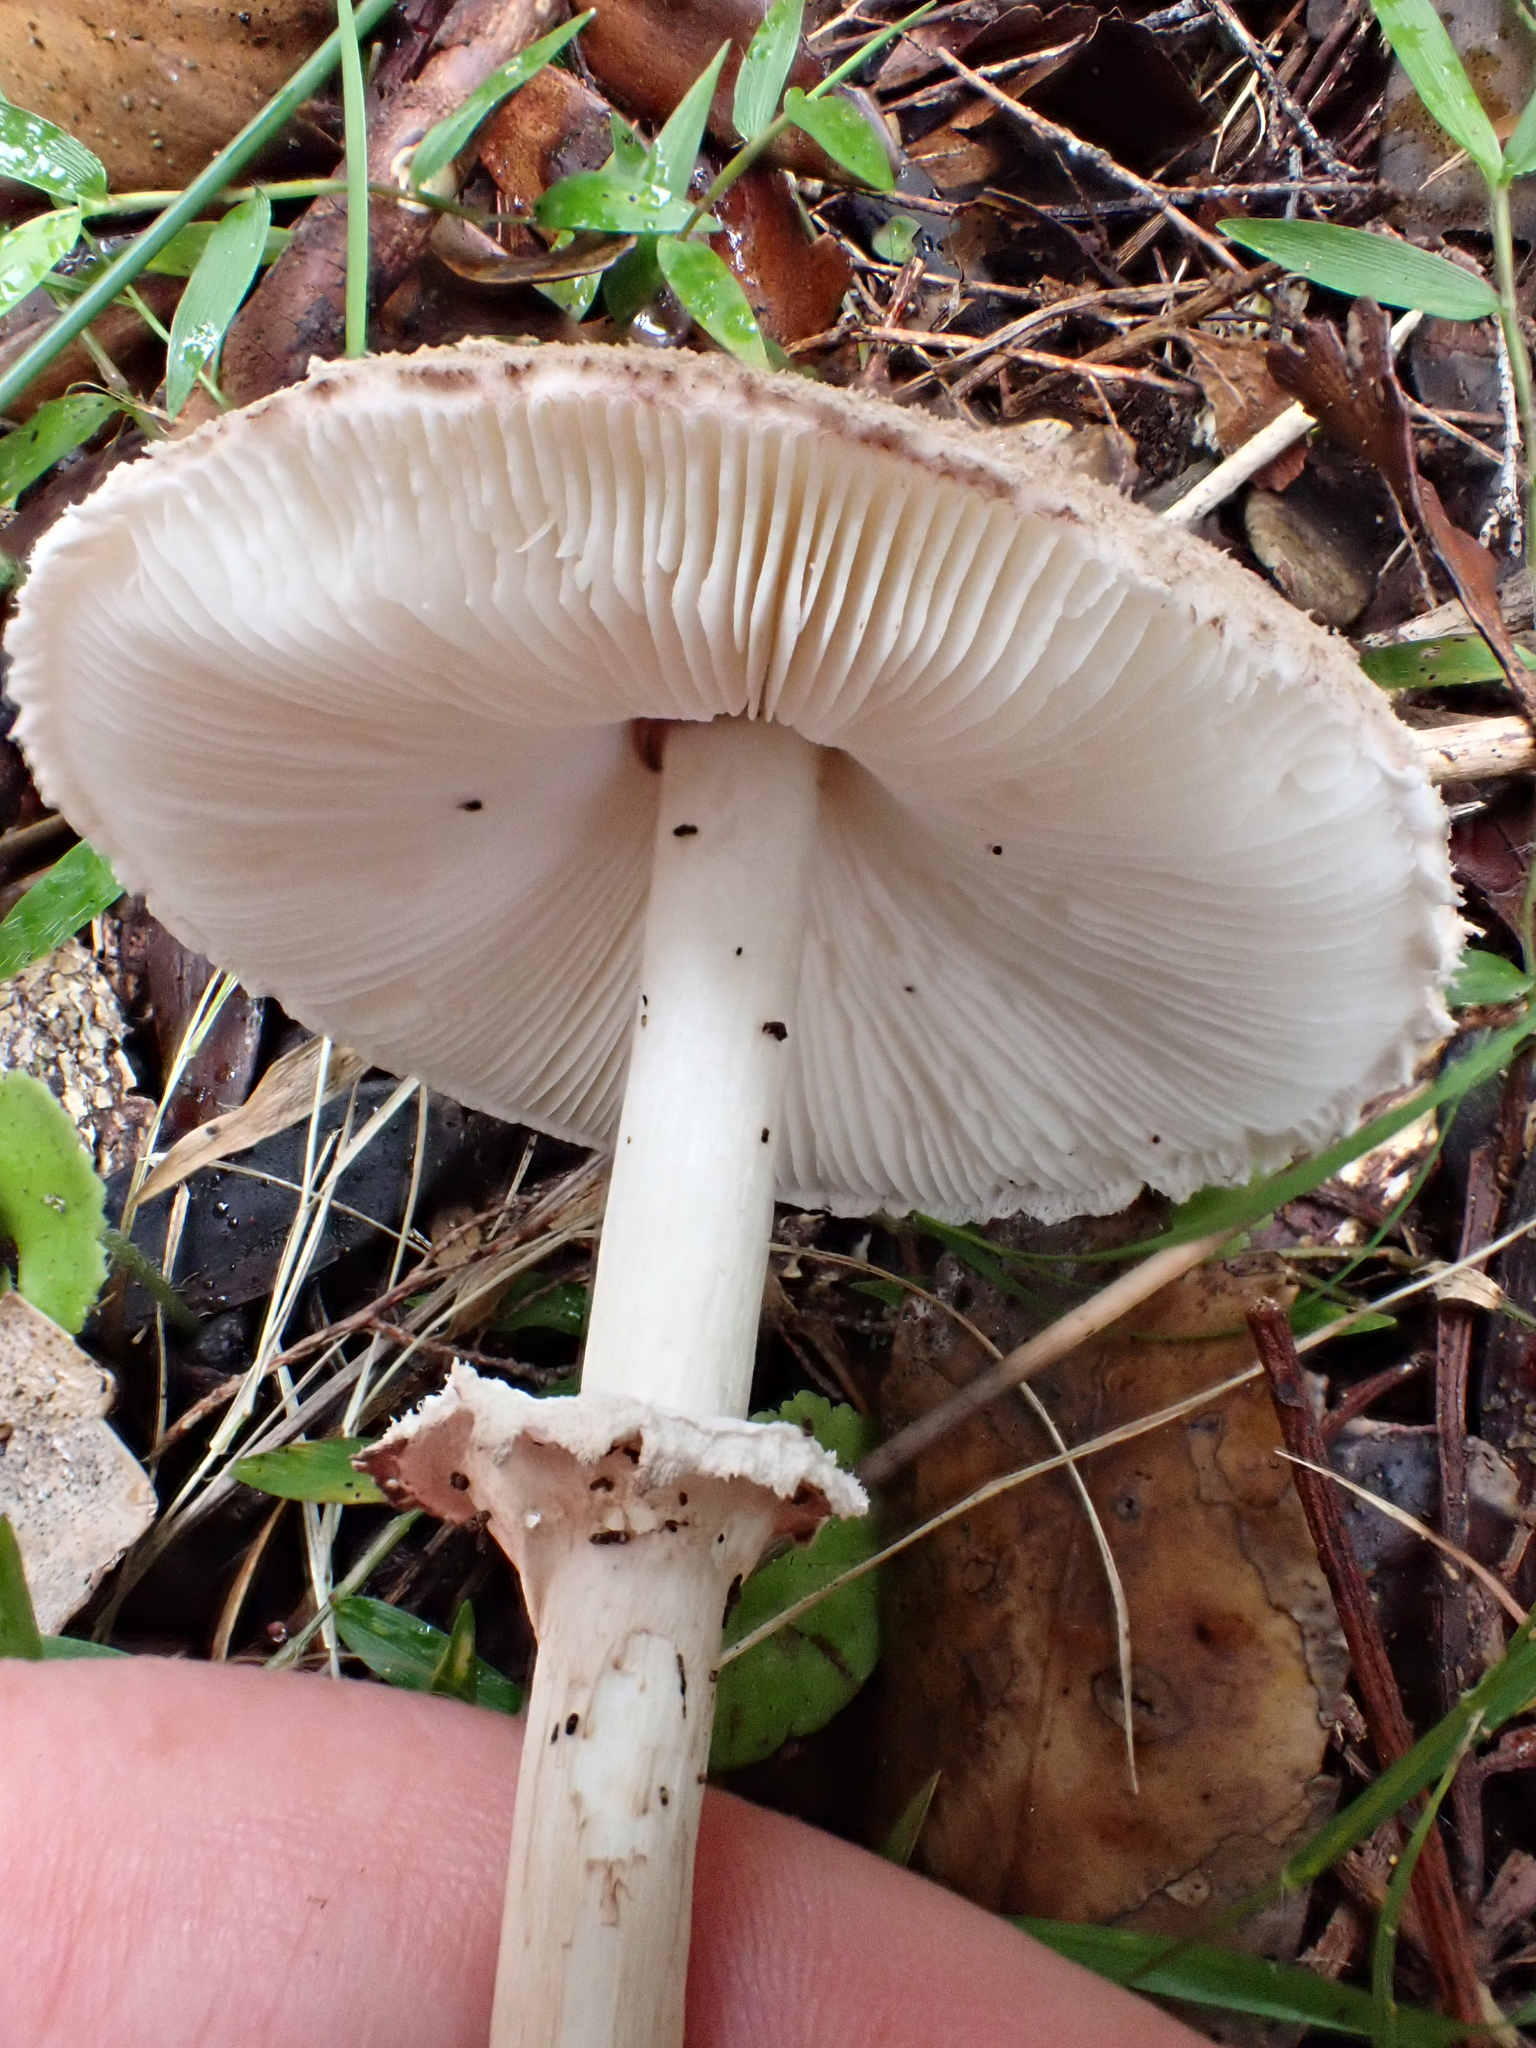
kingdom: Fungi
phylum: Basidiomycota
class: Agaricomycetes
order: Agaricales
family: Agaricaceae
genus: Macrolepiota
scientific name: Macrolepiota clelandii
